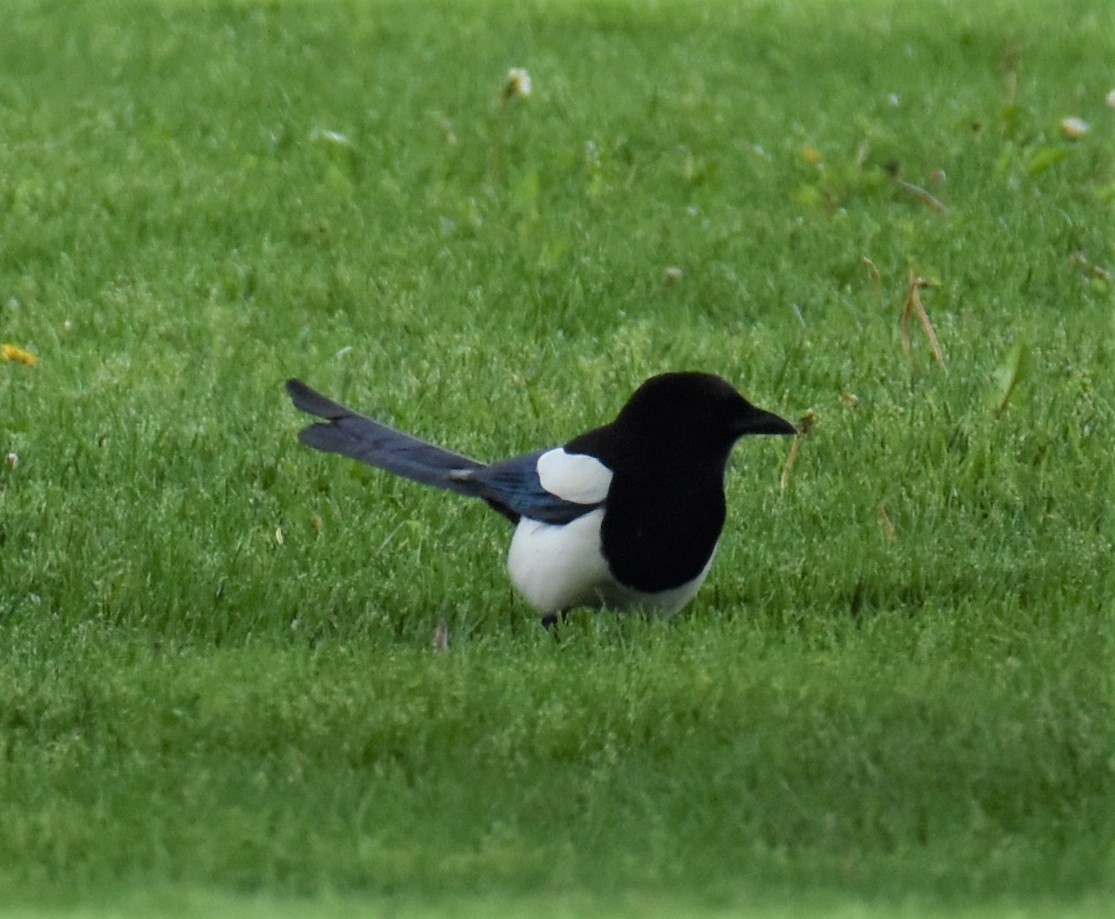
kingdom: Animalia
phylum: Chordata
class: Aves
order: Passeriformes
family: Corvidae
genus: Pica
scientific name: Pica hudsonia
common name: Black-billed magpie
